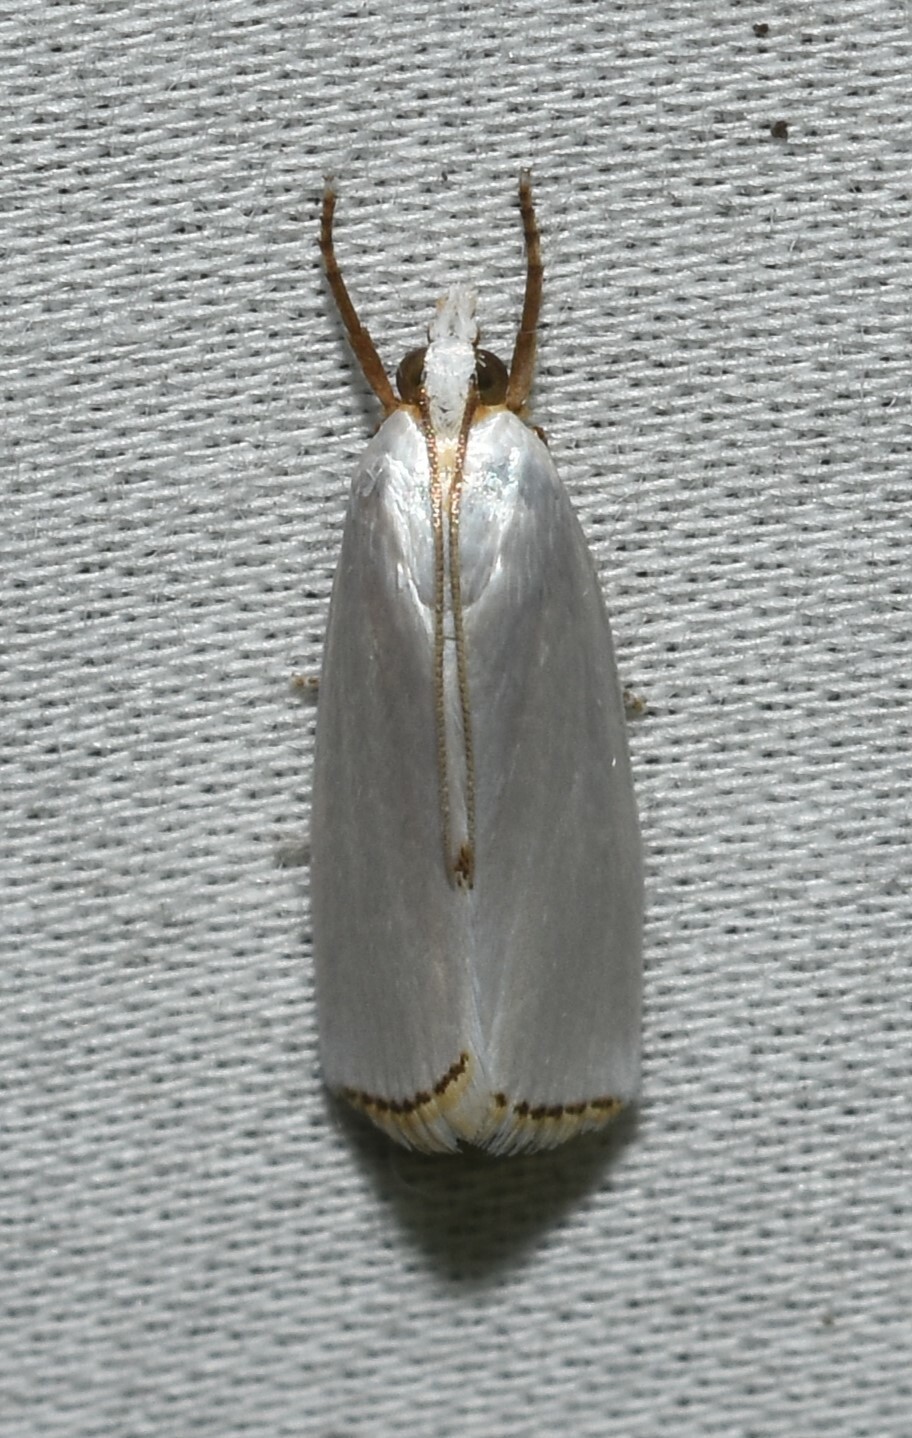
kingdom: Animalia
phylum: Arthropoda
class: Insecta
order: Lepidoptera
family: Crambidae
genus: Argyria
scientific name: Argyria nivalis
